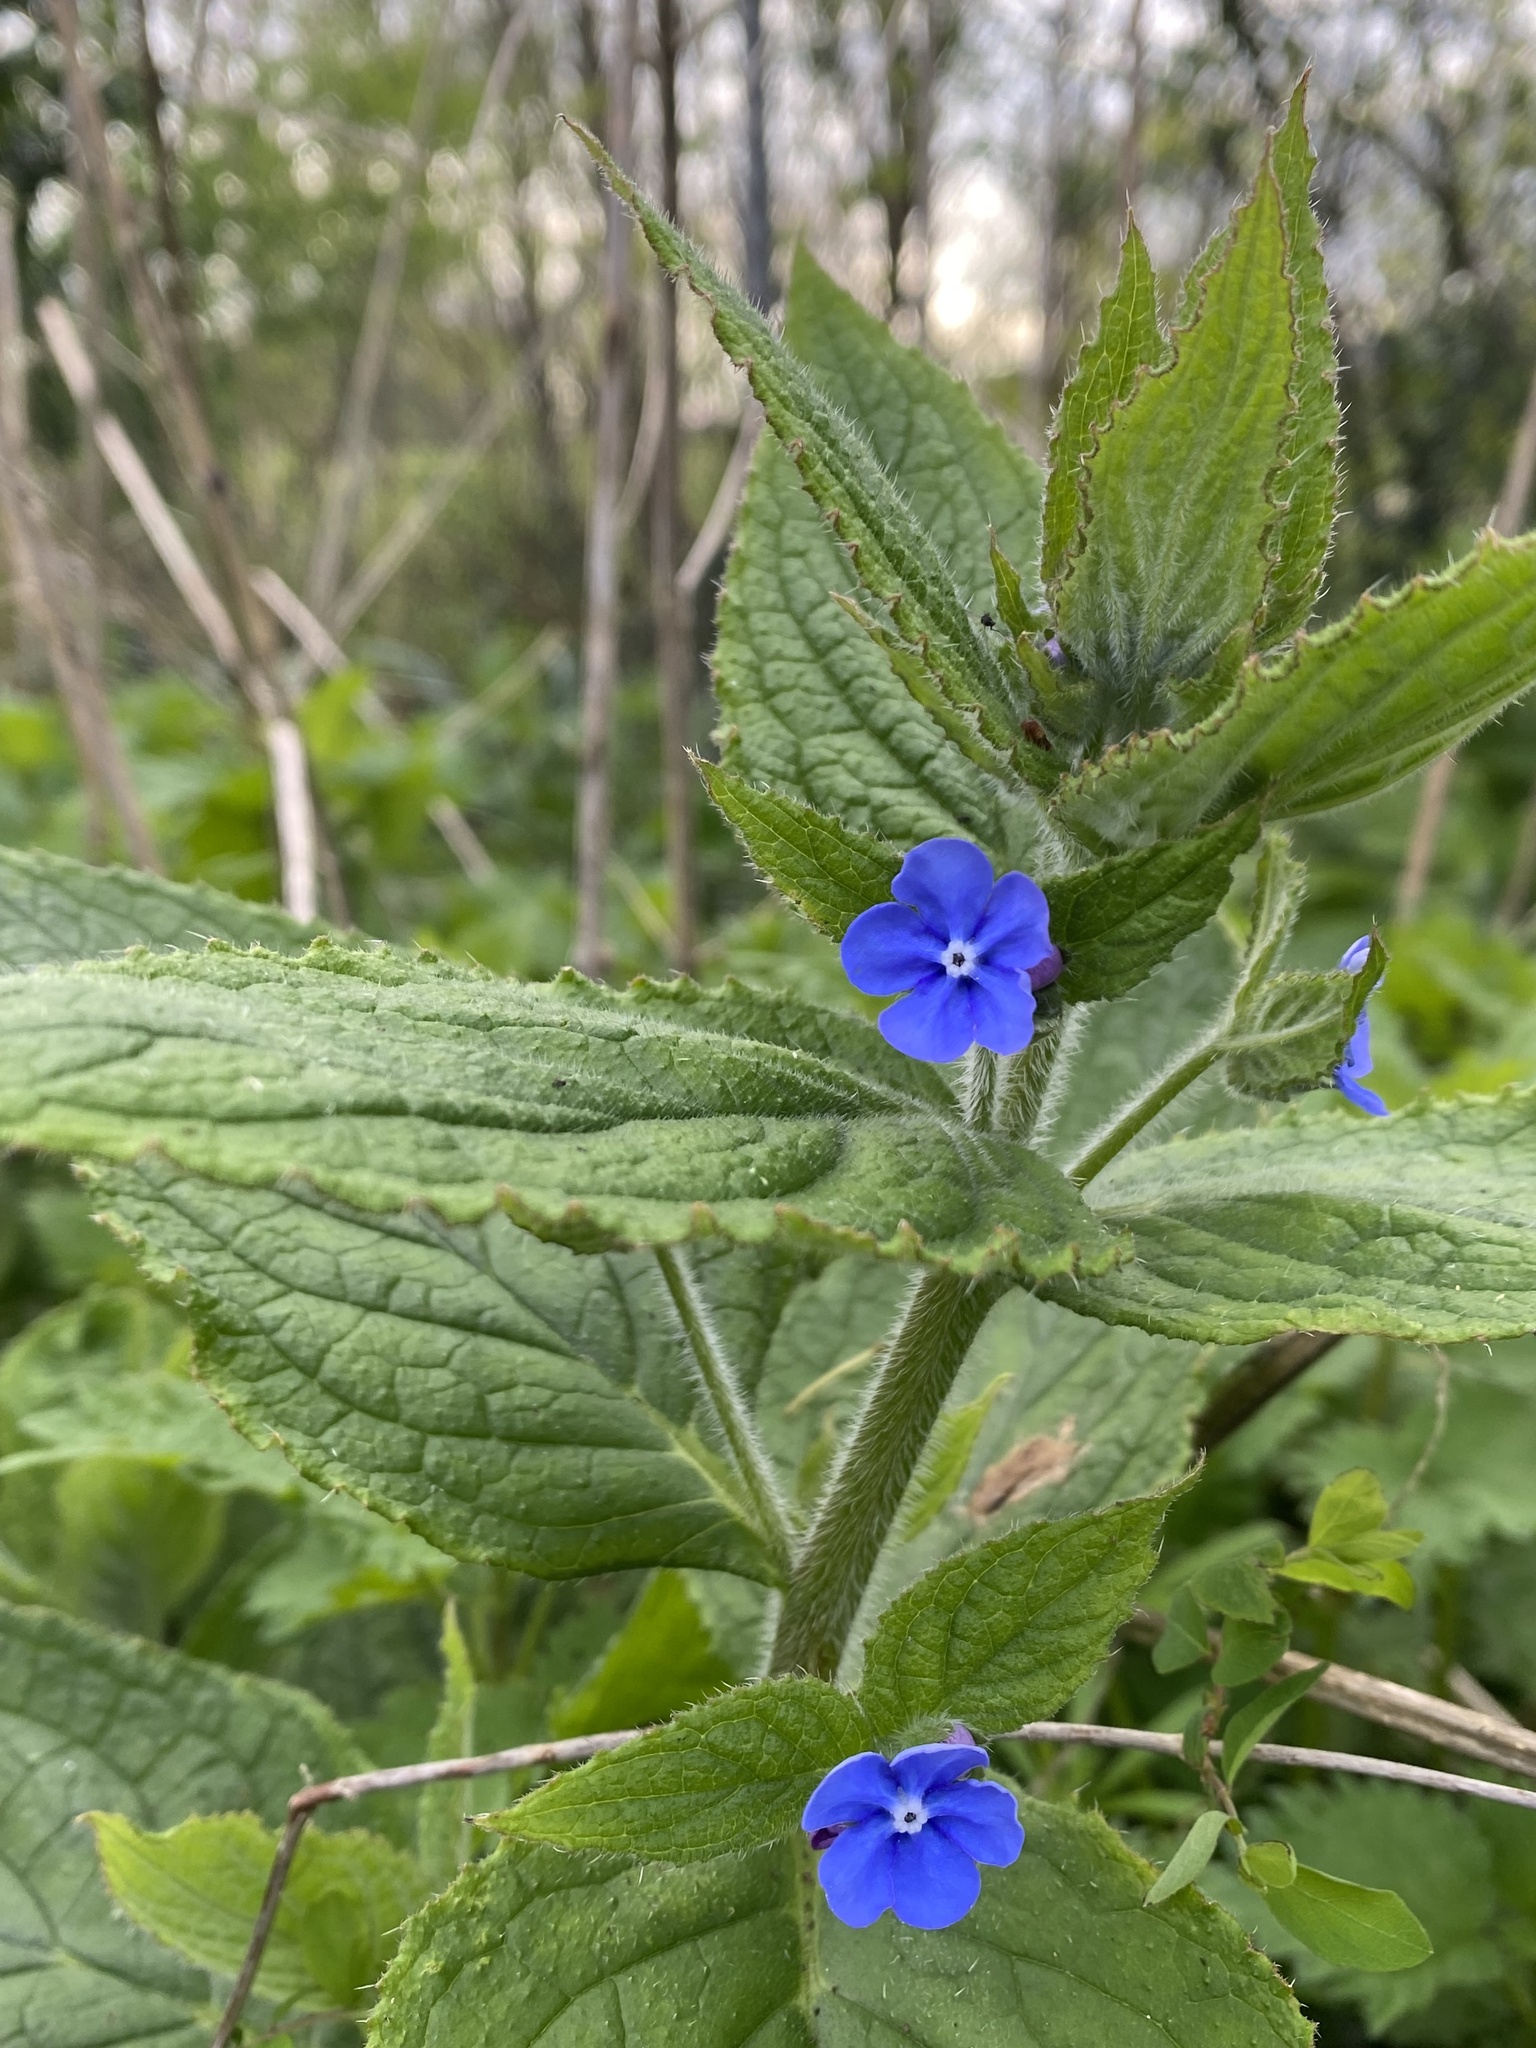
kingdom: Plantae
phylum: Tracheophyta
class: Magnoliopsida
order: Boraginales
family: Boraginaceae
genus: Pentaglottis
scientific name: Pentaglottis sempervirens
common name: Green alkanet
